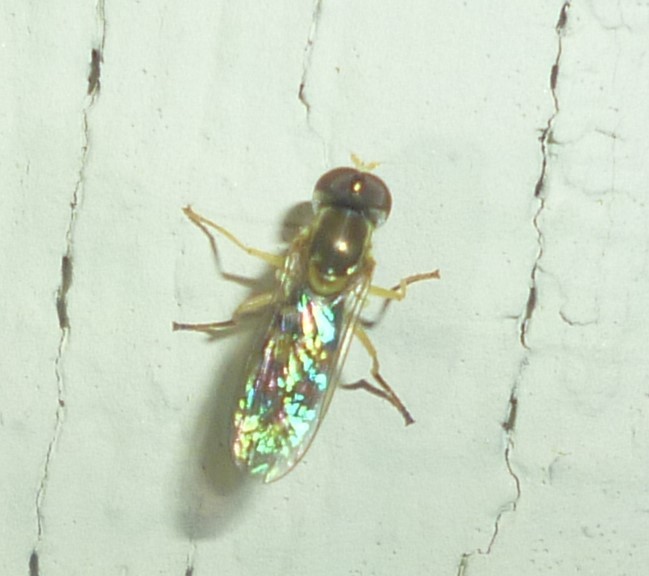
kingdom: Animalia
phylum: Arthropoda
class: Insecta
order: Diptera
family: Syrphidae
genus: Toxomerus
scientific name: Toxomerus marginatus
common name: Syrphid fly
